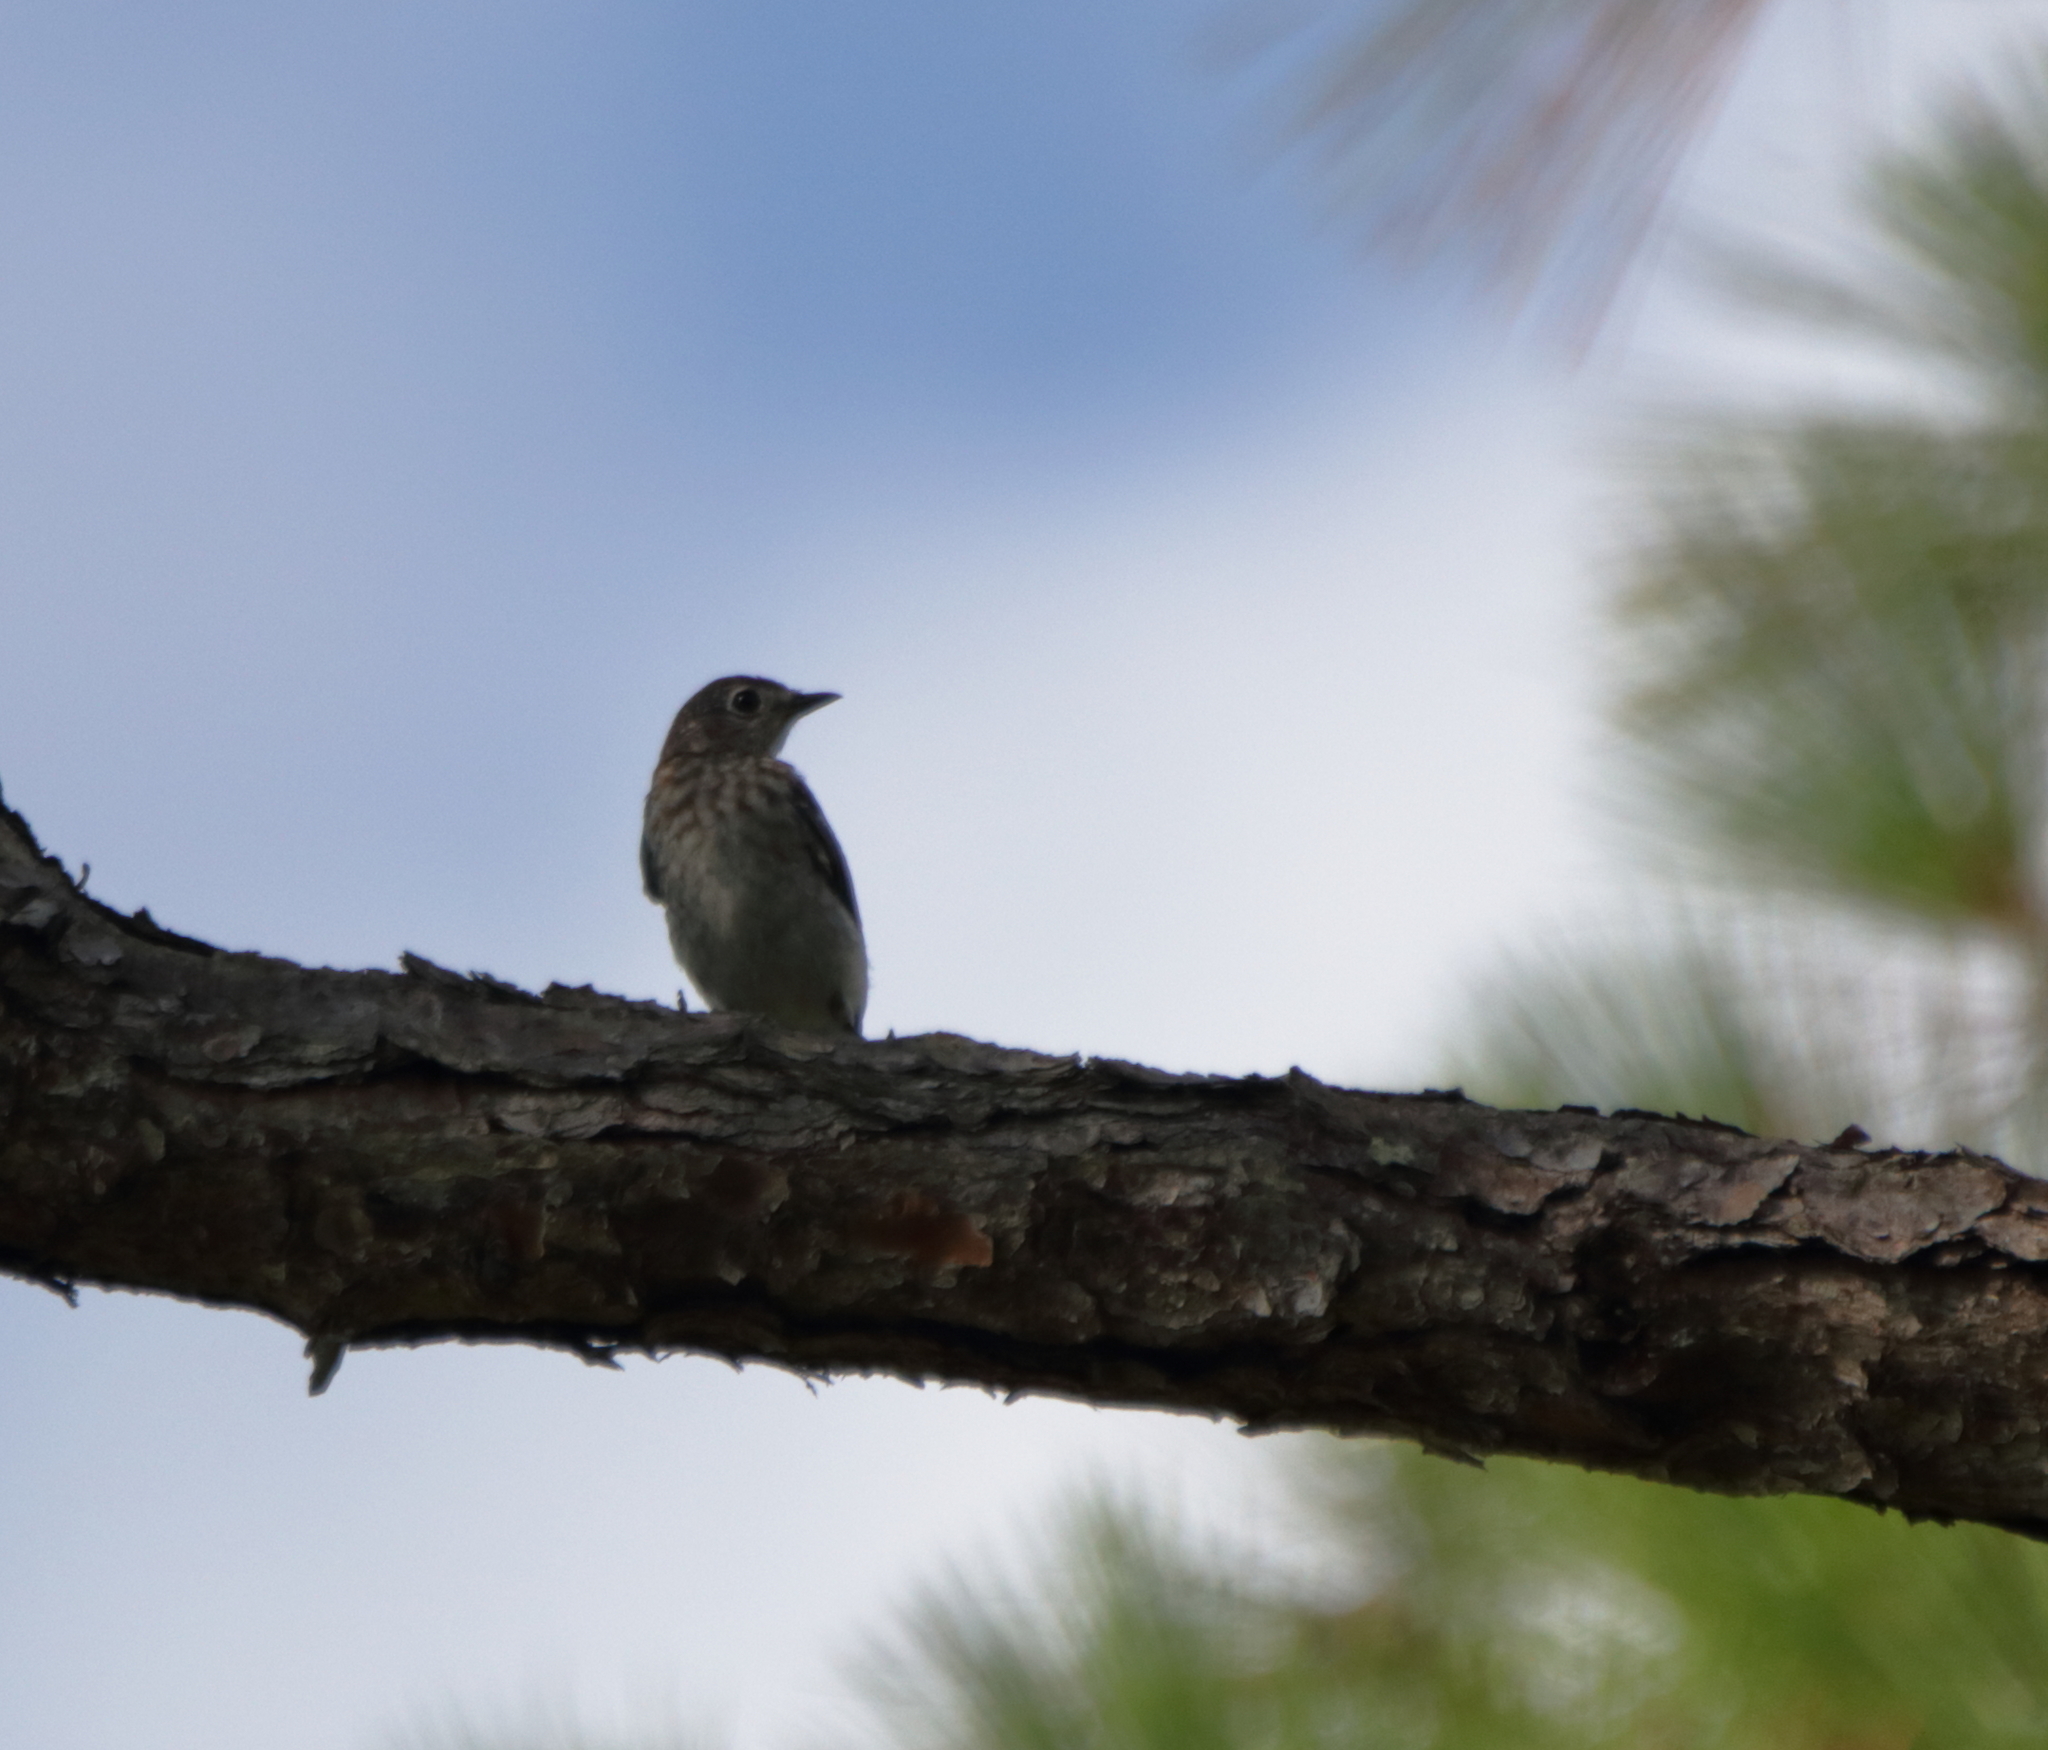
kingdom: Animalia
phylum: Chordata
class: Aves
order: Passeriformes
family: Turdidae
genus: Sialia
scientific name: Sialia sialis
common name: Eastern bluebird
